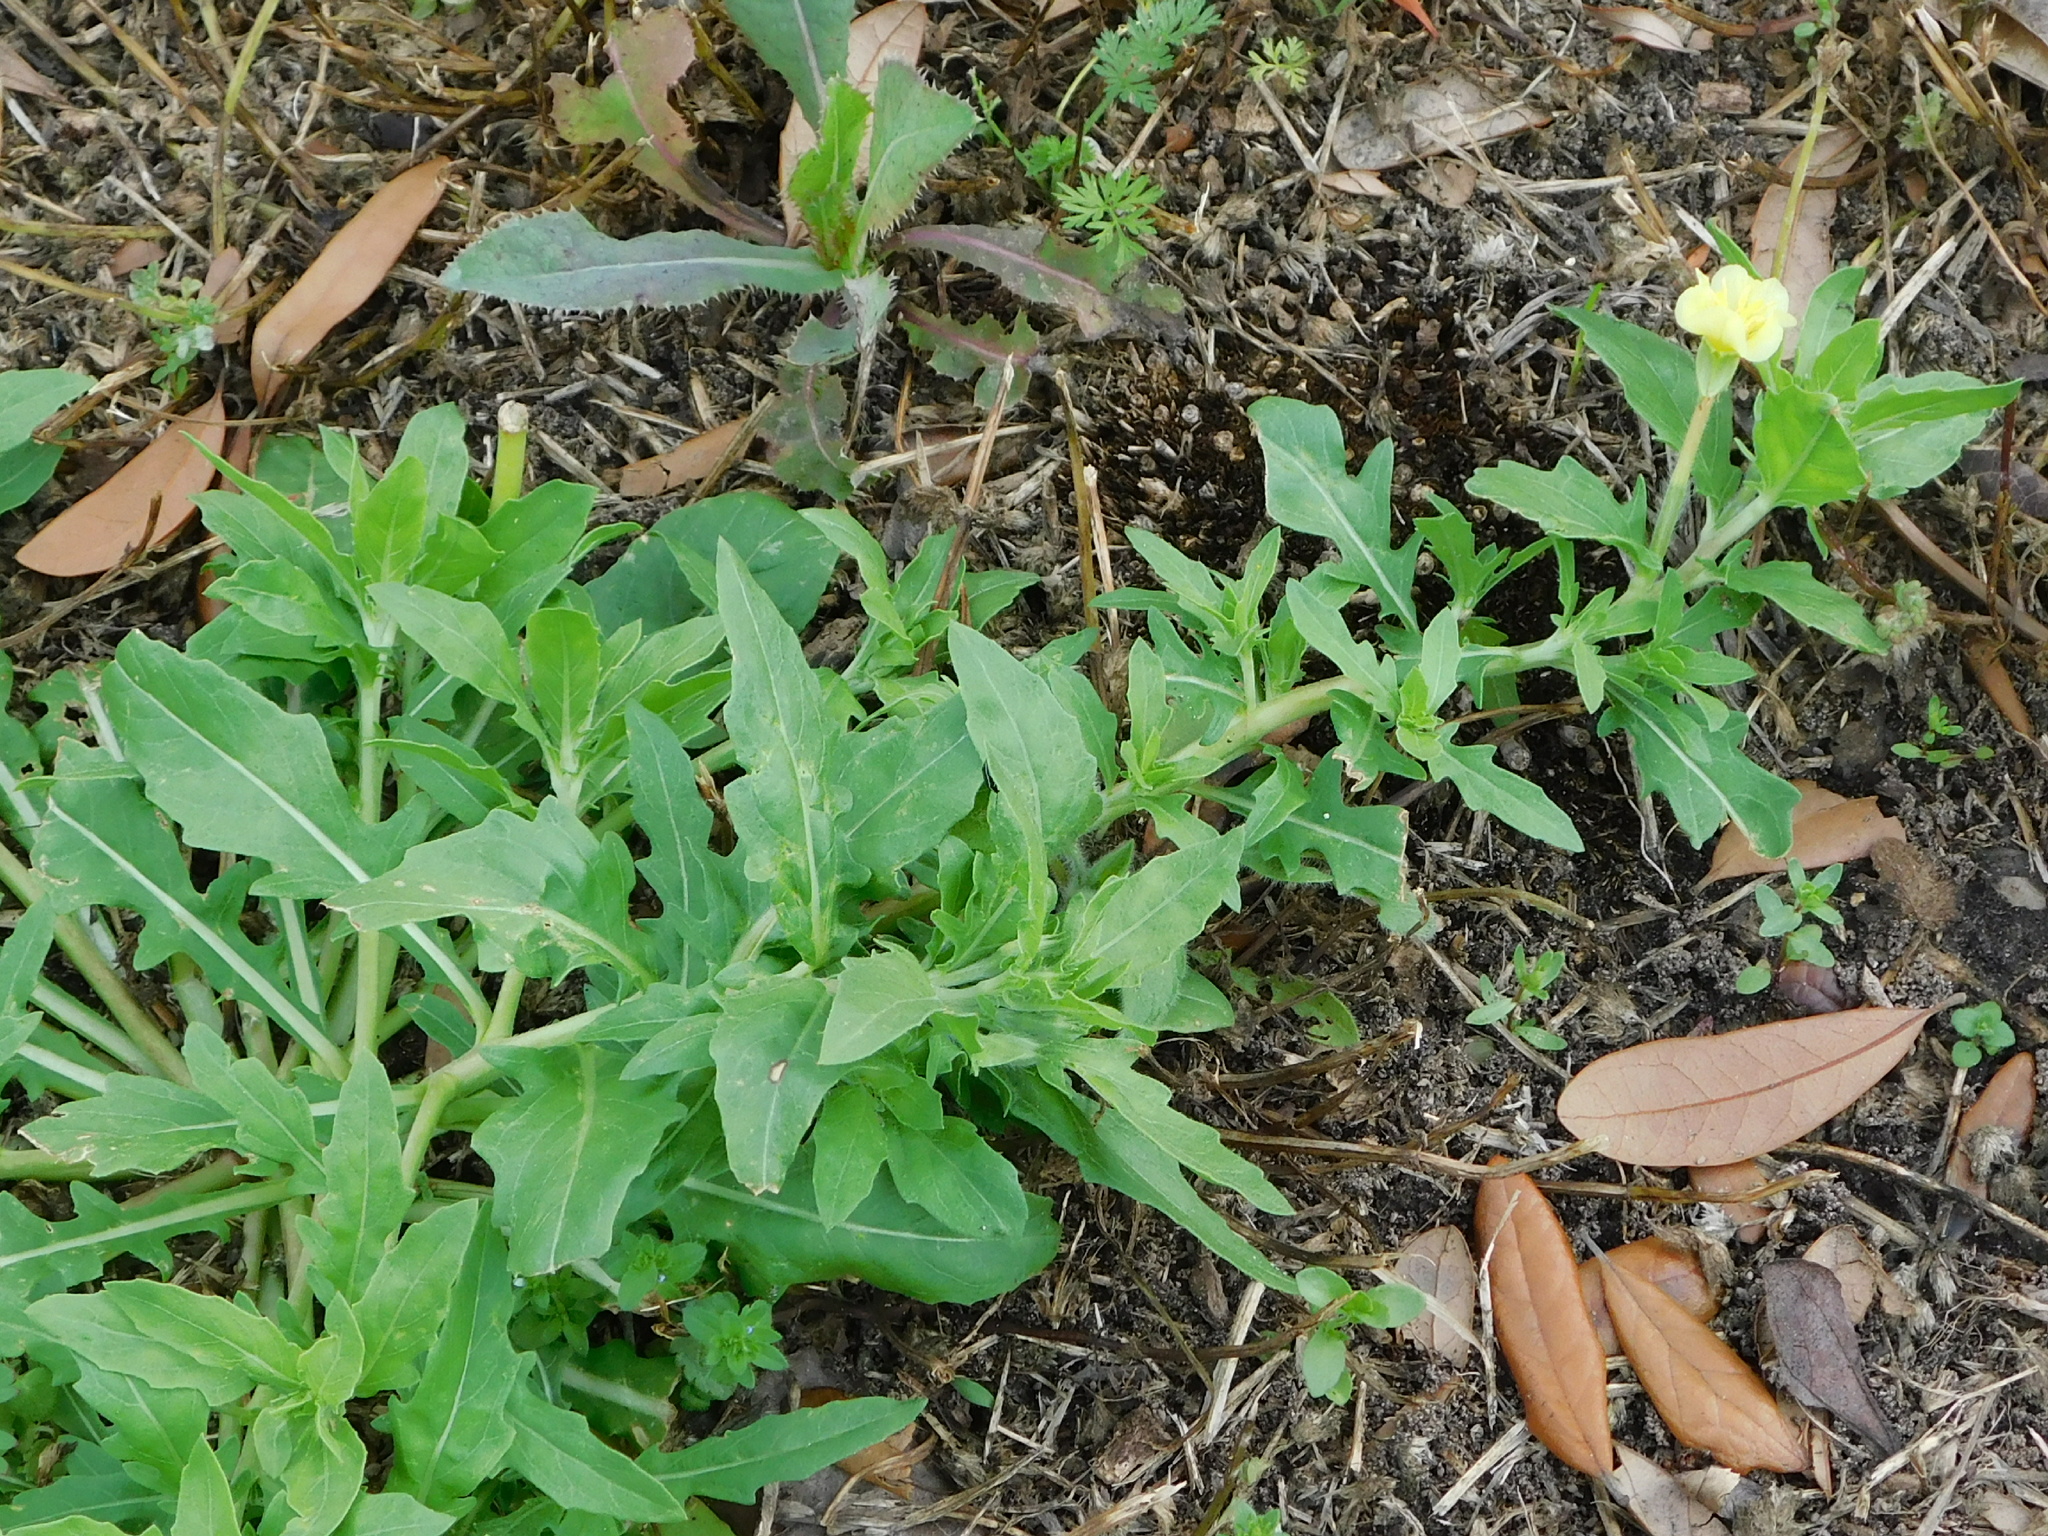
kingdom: Plantae
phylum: Tracheophyta
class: Magnoliopsida
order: Myrtales
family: Onagraceae
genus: Oenothera
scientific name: Oenothera laciniata
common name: Cut-leaved evening-primrose
